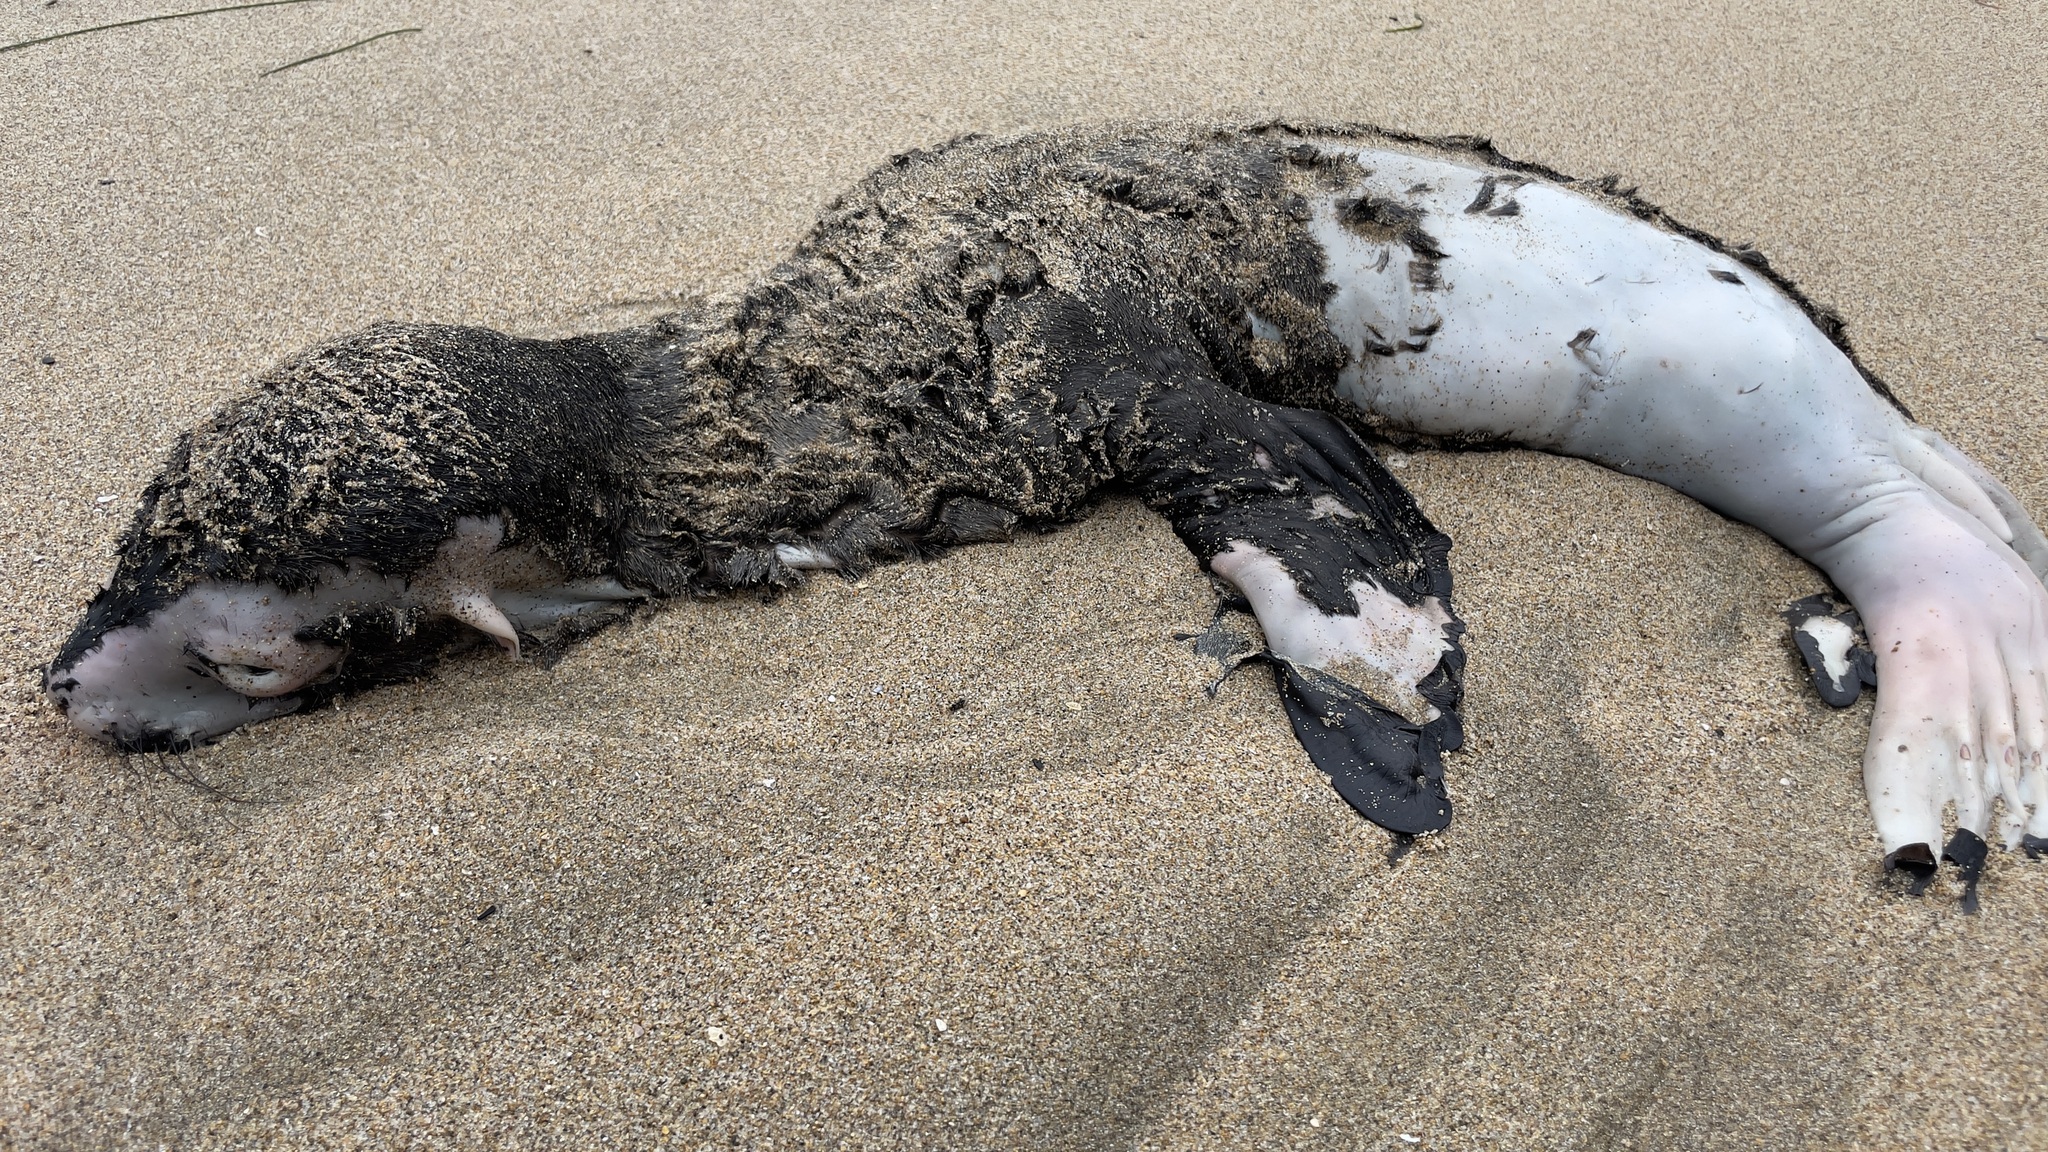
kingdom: Animalia
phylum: Chordata
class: Mammalia
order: Carnivora
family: Otariidae
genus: Zalophus
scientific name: Zalophus californianus
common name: California sea lion
